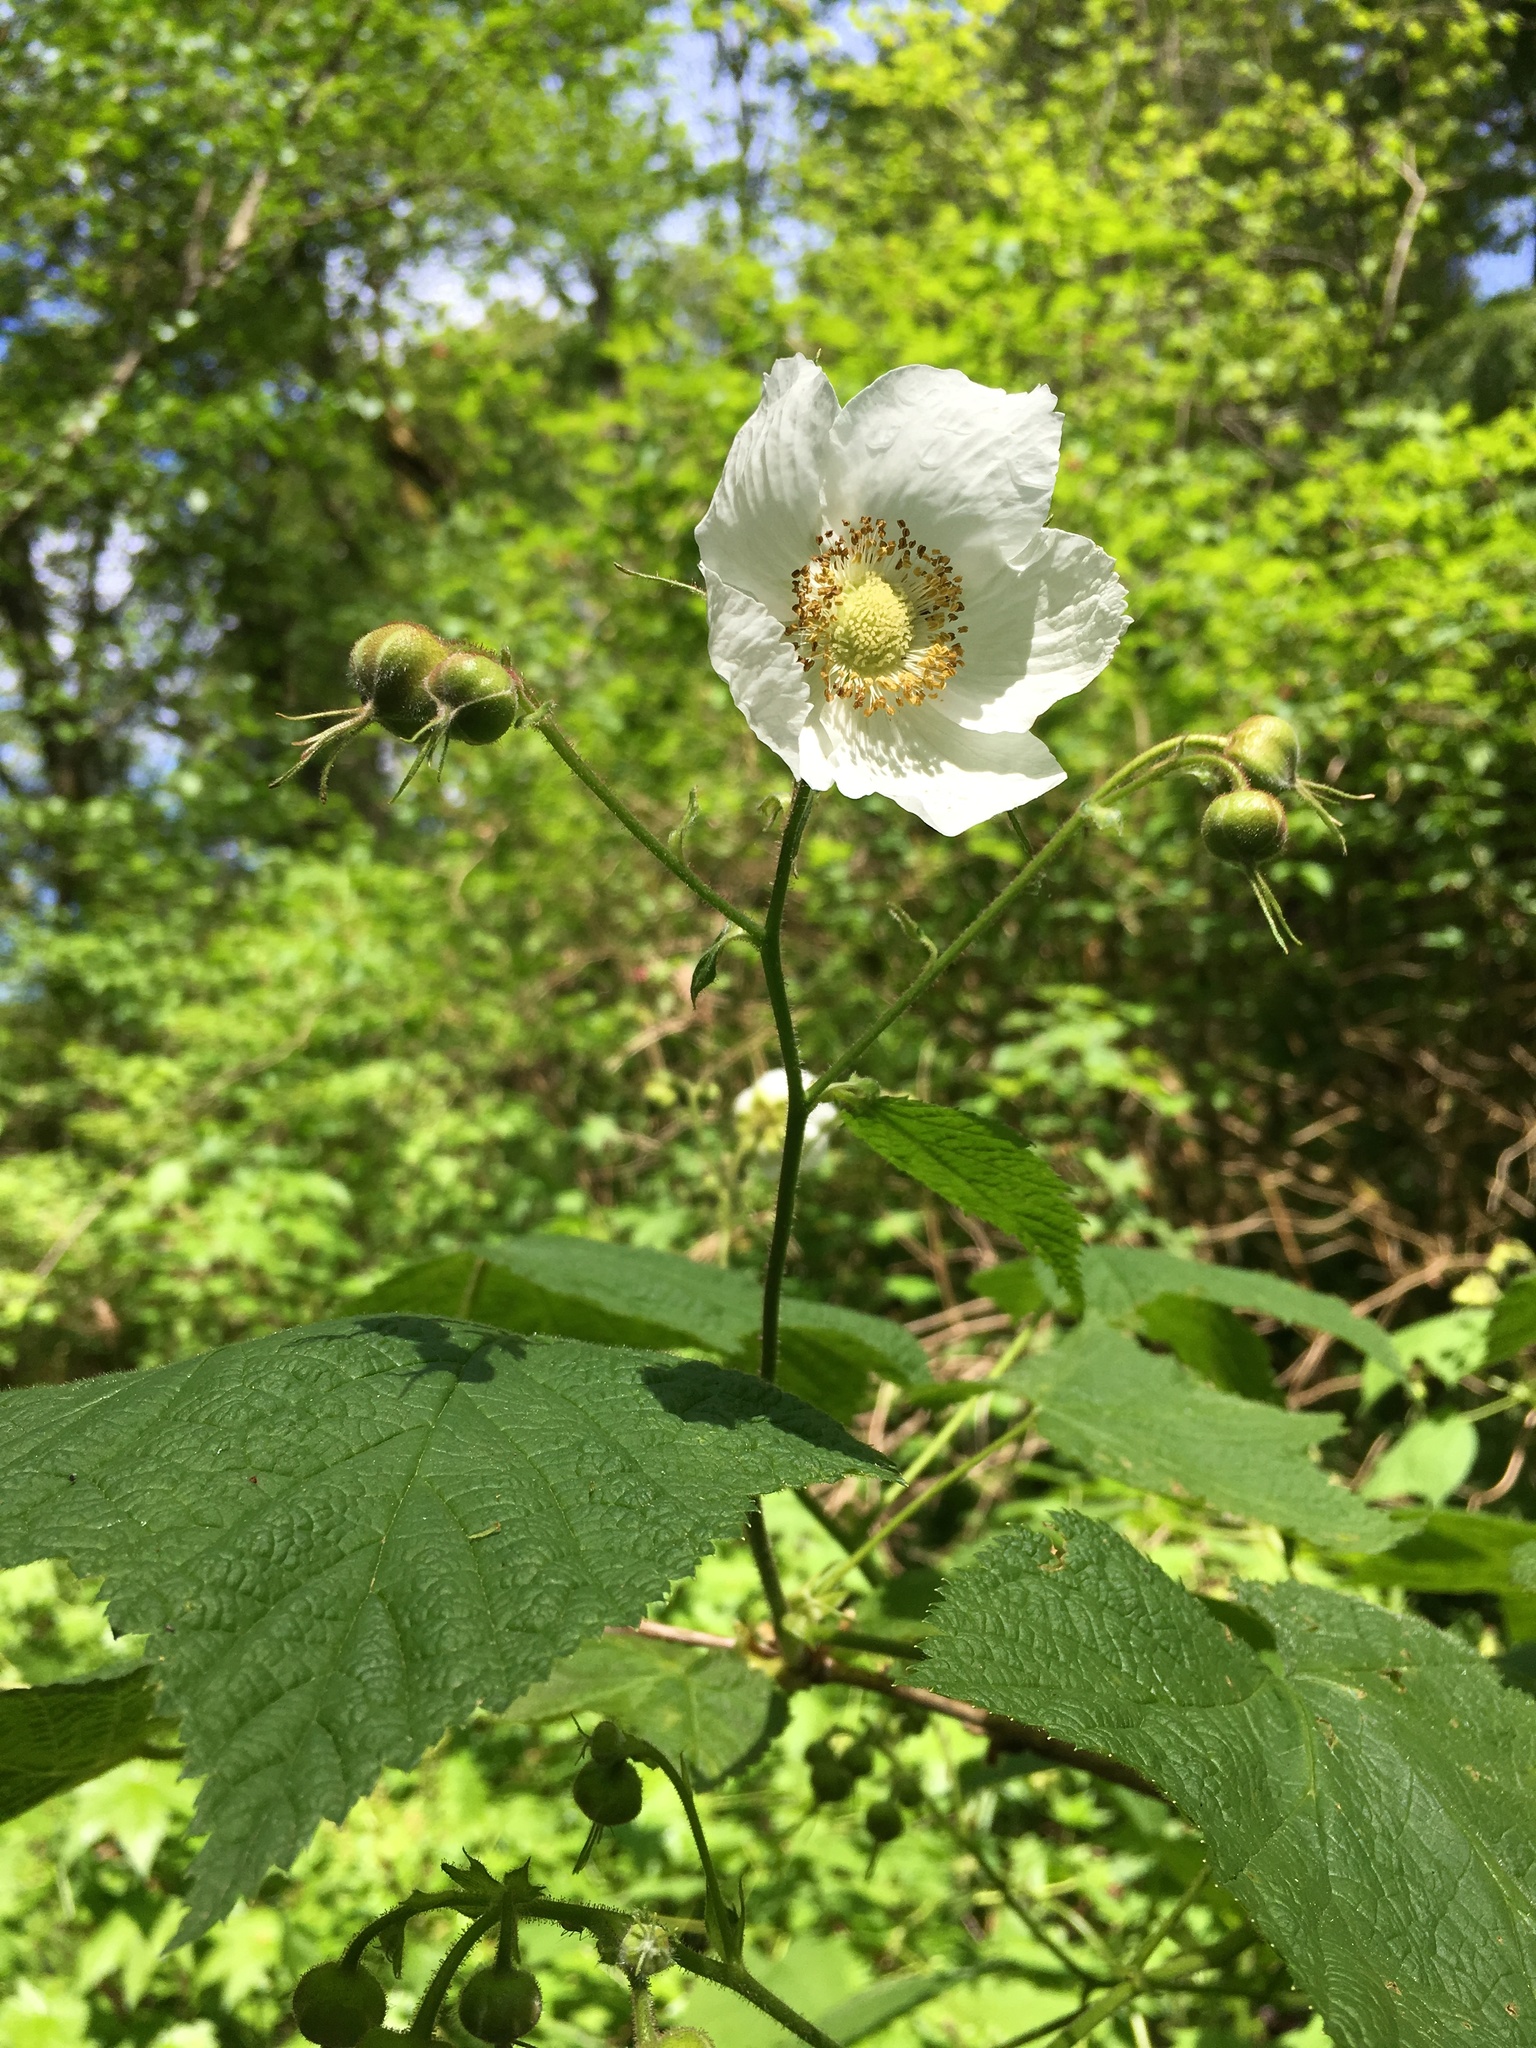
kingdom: Plantae
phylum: Tracheophyta
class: Magnoliopsida
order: Rosales
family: Rosaceae
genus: Rubus
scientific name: Rubus parviflorus
